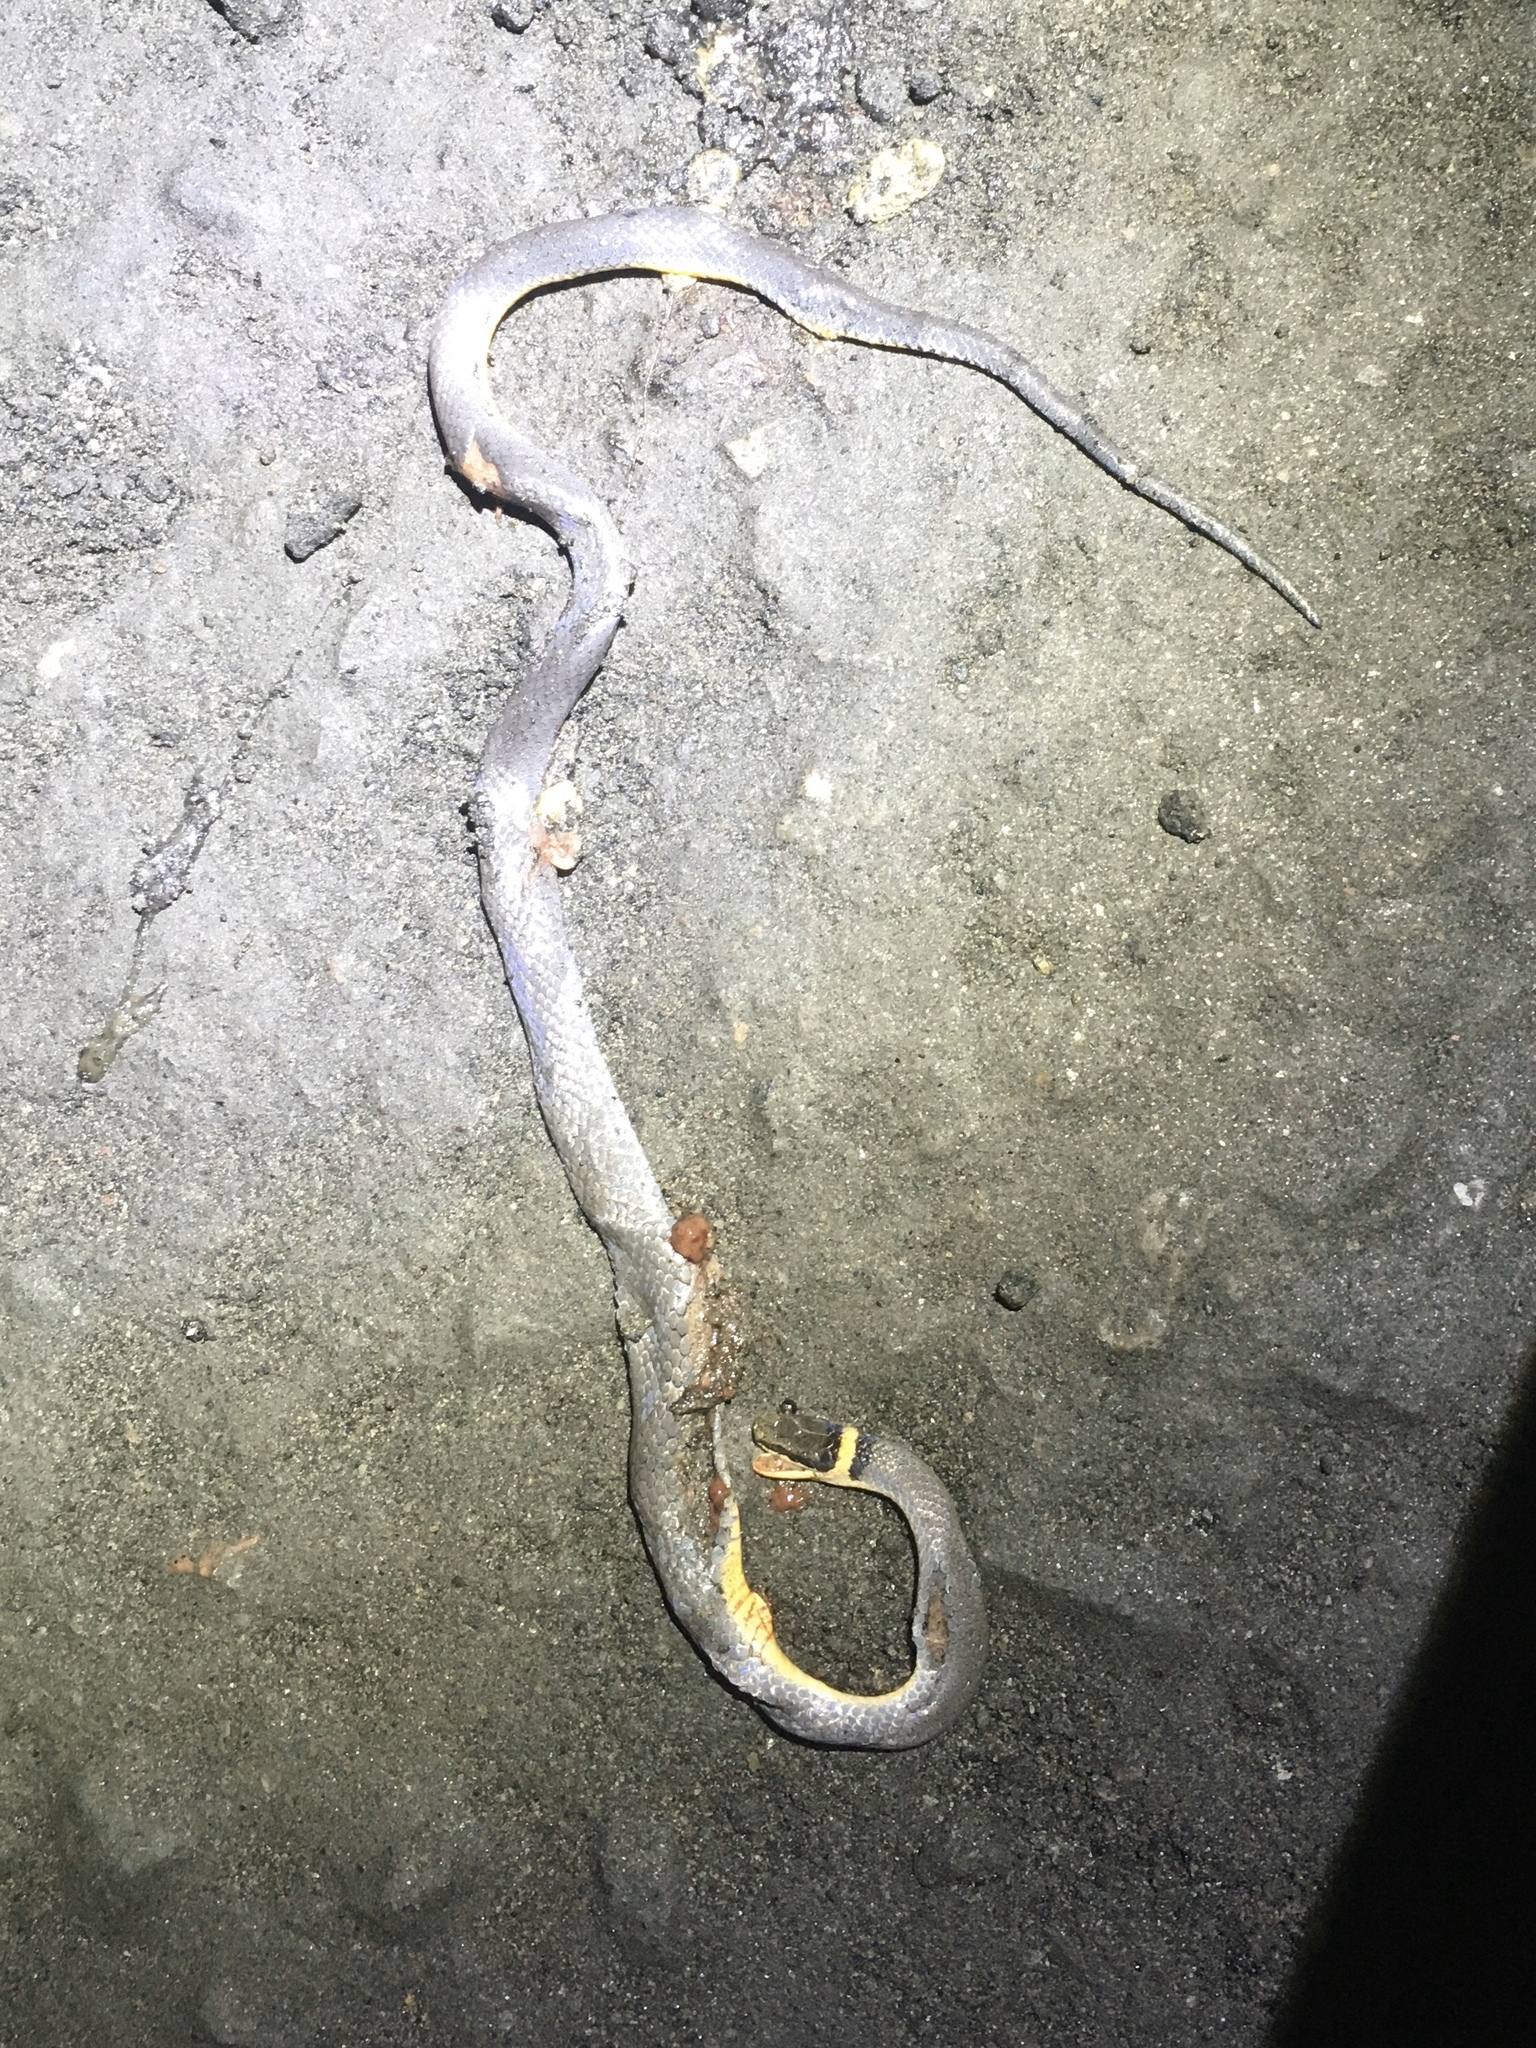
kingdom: Animalia
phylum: Chordata
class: Squamata
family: Colubridae
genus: Diadophis
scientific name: Diadophis punctatus
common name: Ringneck snake
